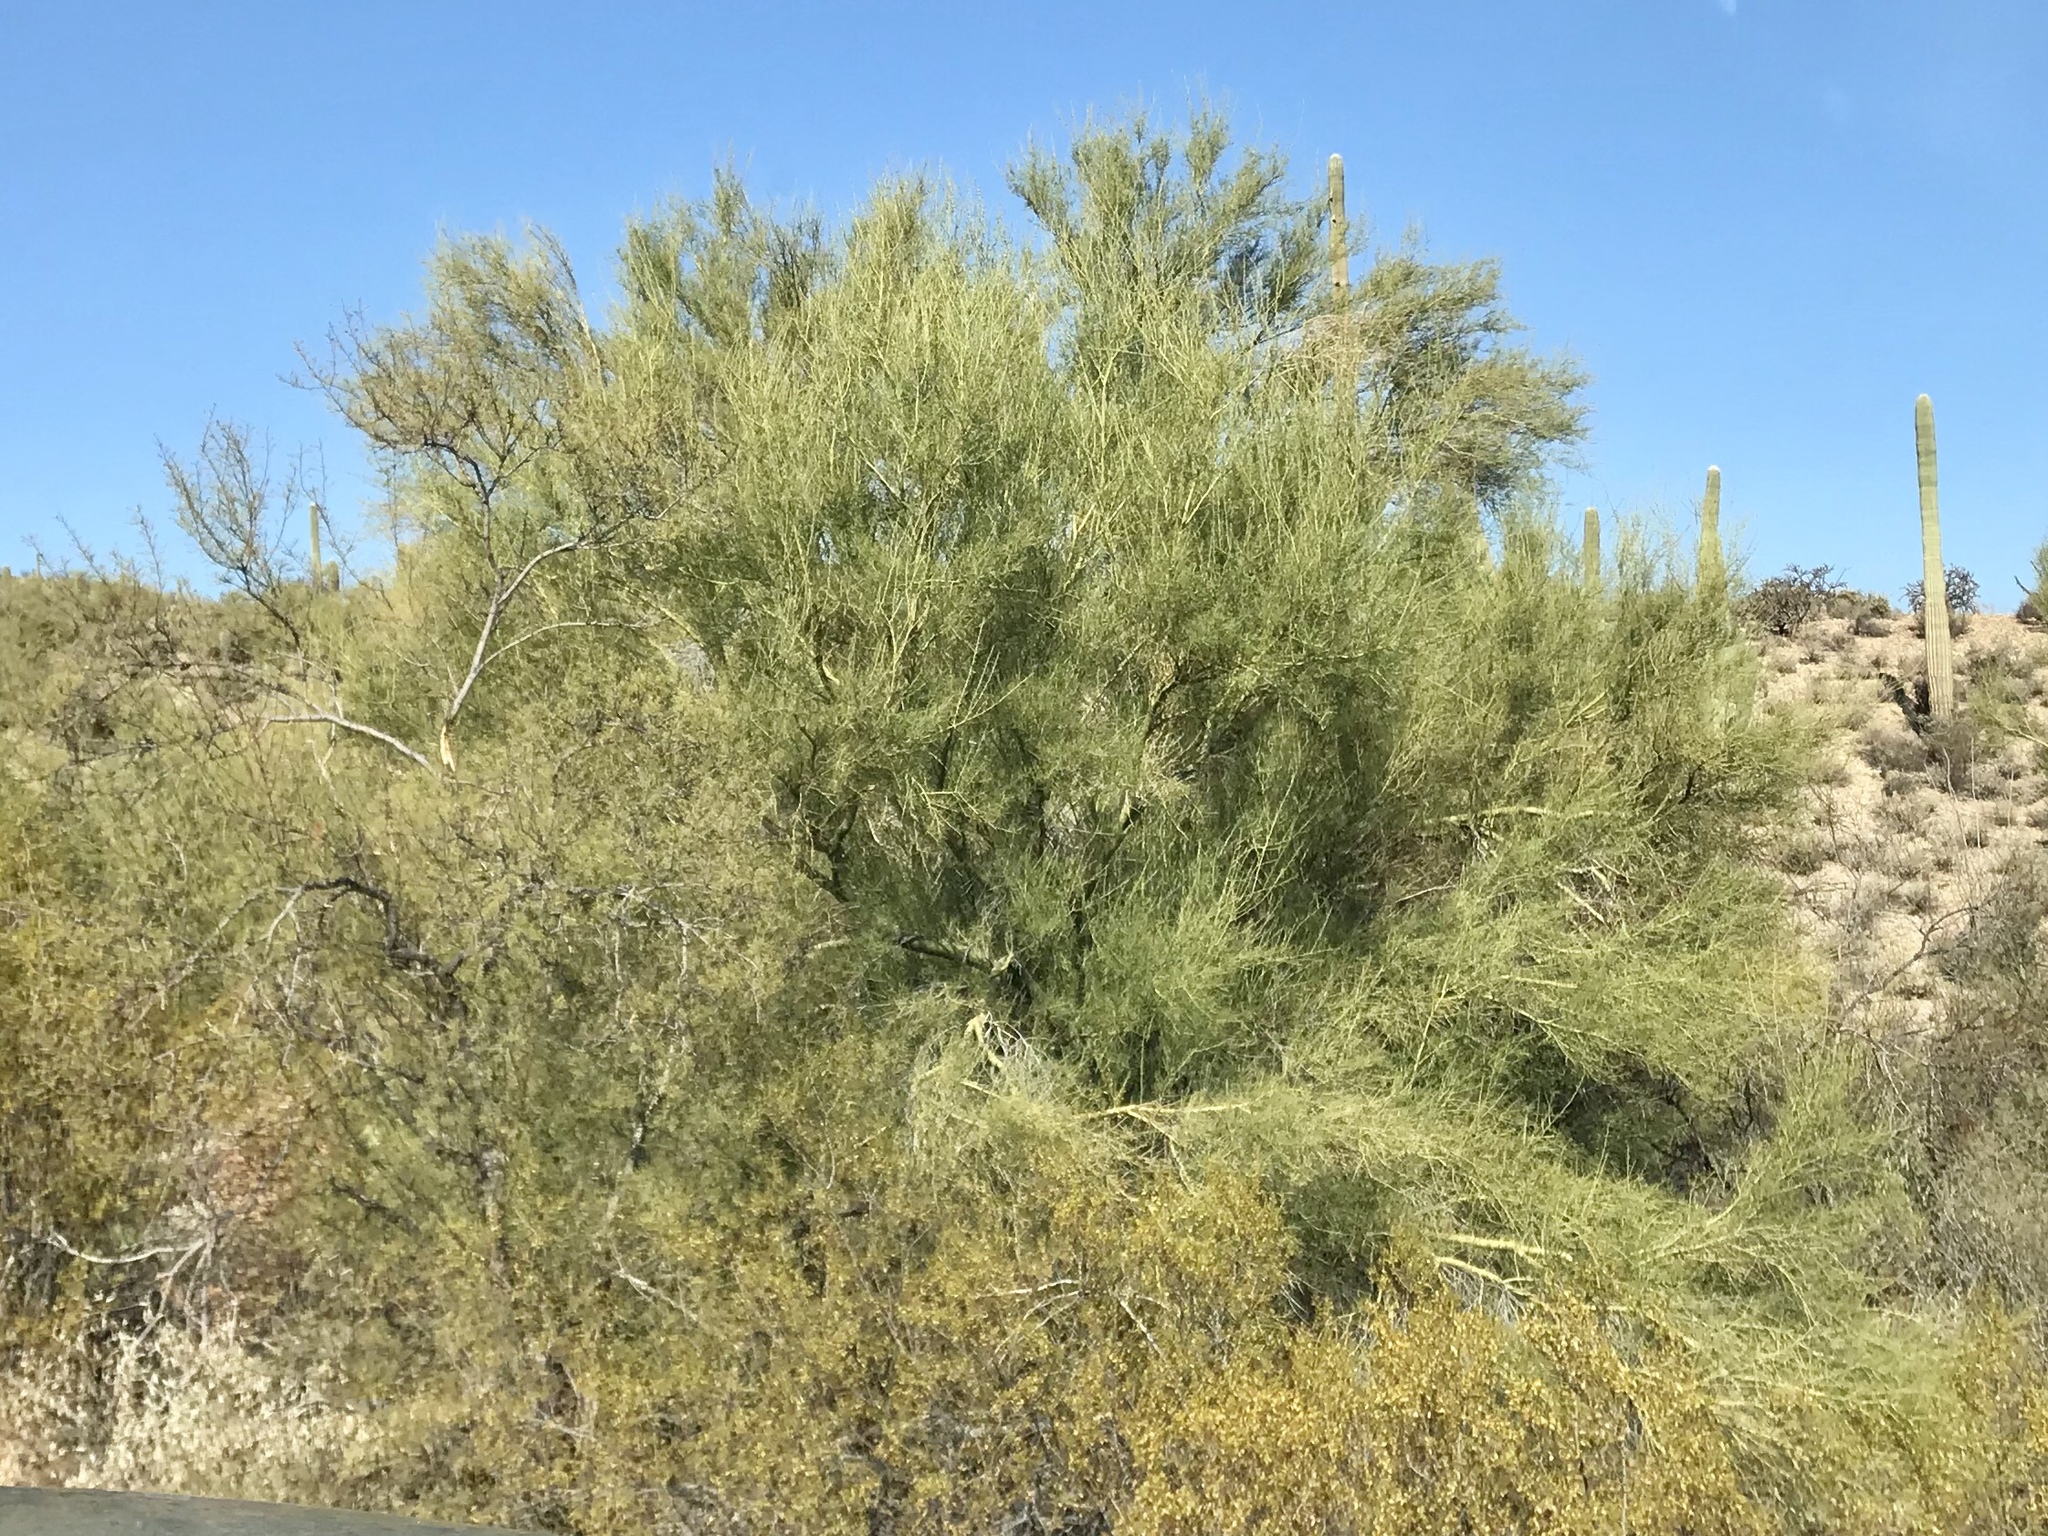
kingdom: Plantae
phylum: Tracheophyta
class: Magnoliopsida
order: Fabales
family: Fabaceae
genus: Parkinsonia
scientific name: Parkinsonia microphylla
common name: Yellow paloverde
